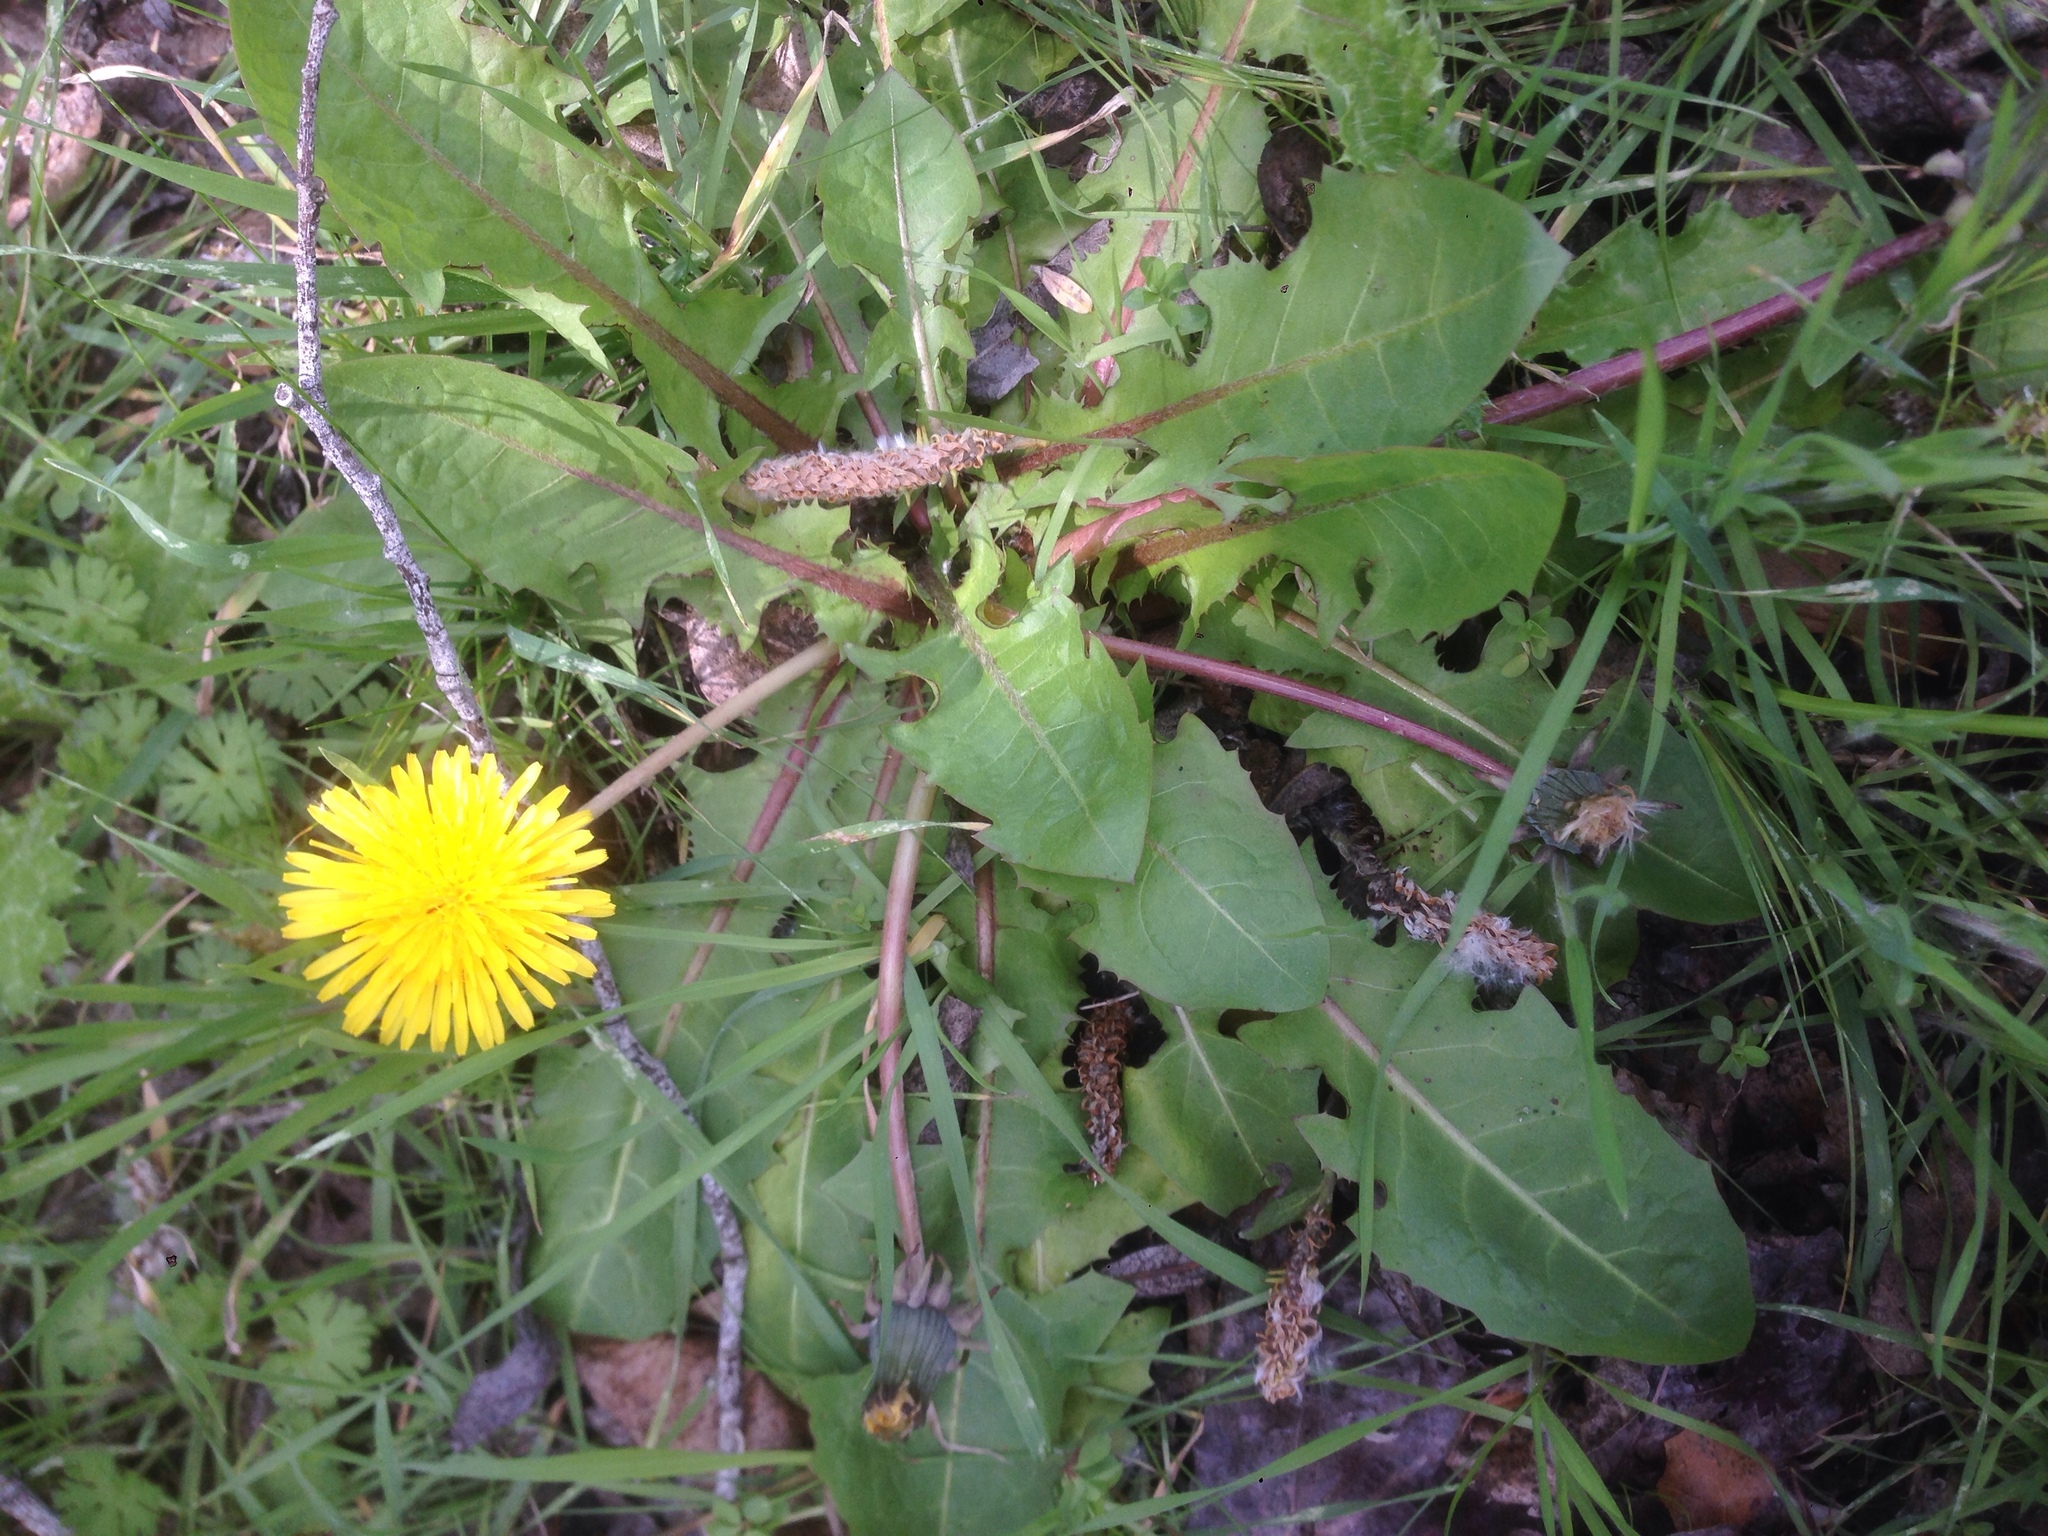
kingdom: Plantae
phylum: Tracheophyta
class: Magnoliopsida
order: Asterales
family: Asteraceae
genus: Taraxacum
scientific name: Taraxacum officinale
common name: Common dandelion
